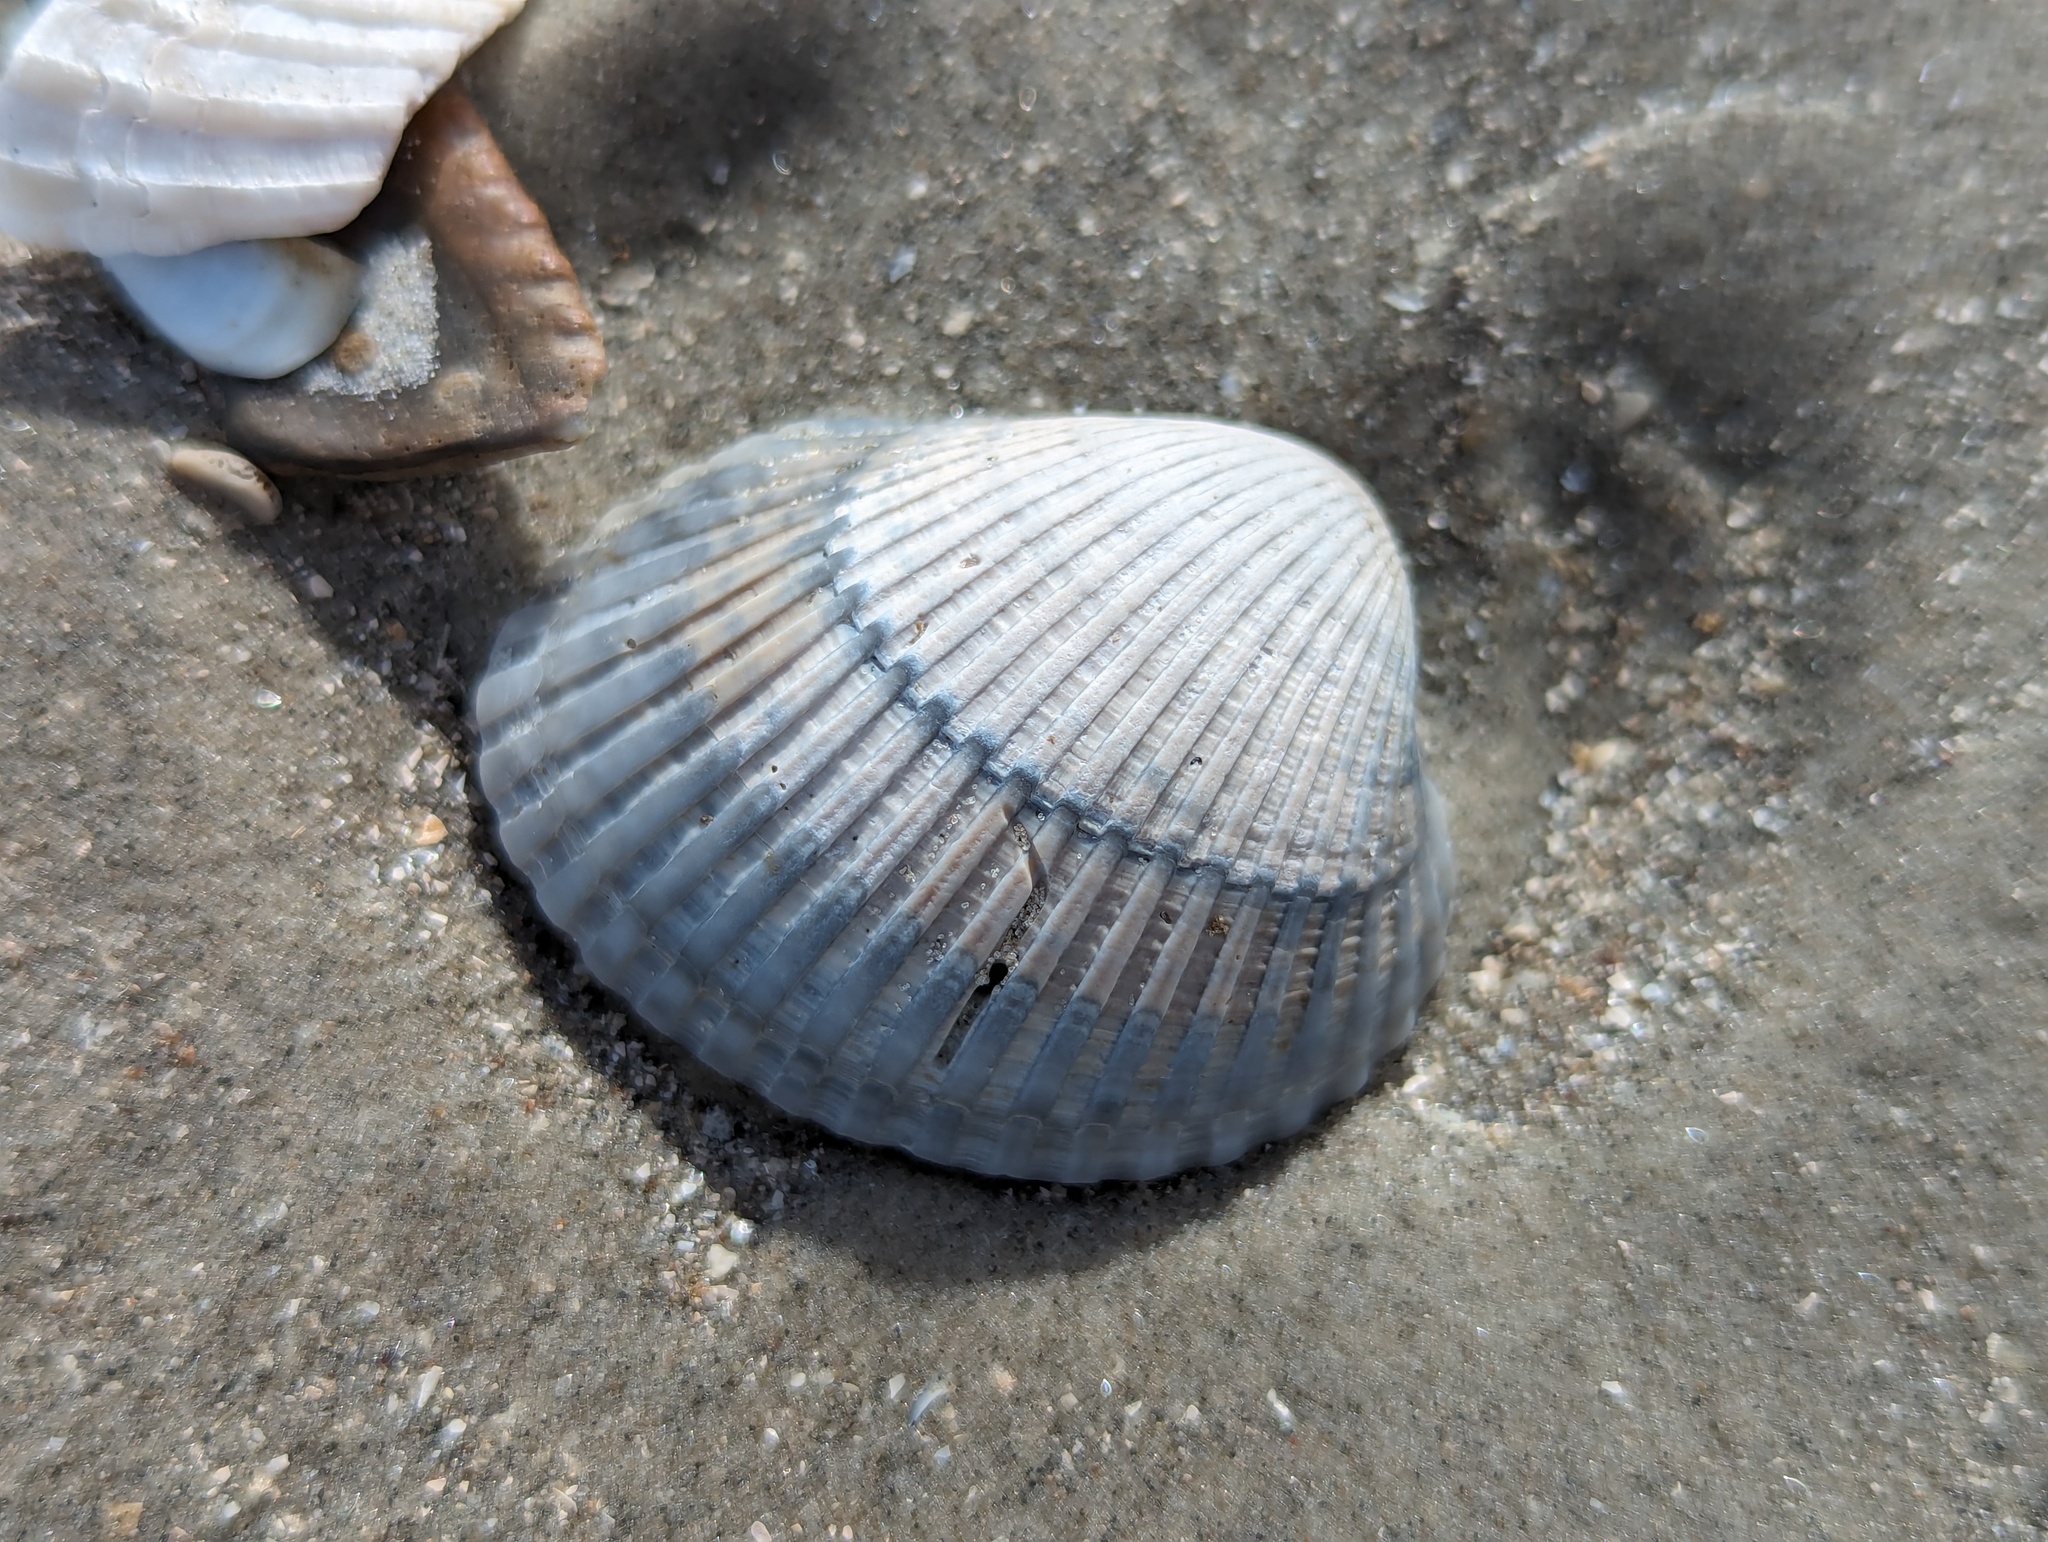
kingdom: Animalia
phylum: Mollusca
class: Bivalvia
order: Arcida
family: Arcidae
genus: Lunarca
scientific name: Lunarca ovalis
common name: Blood ark
